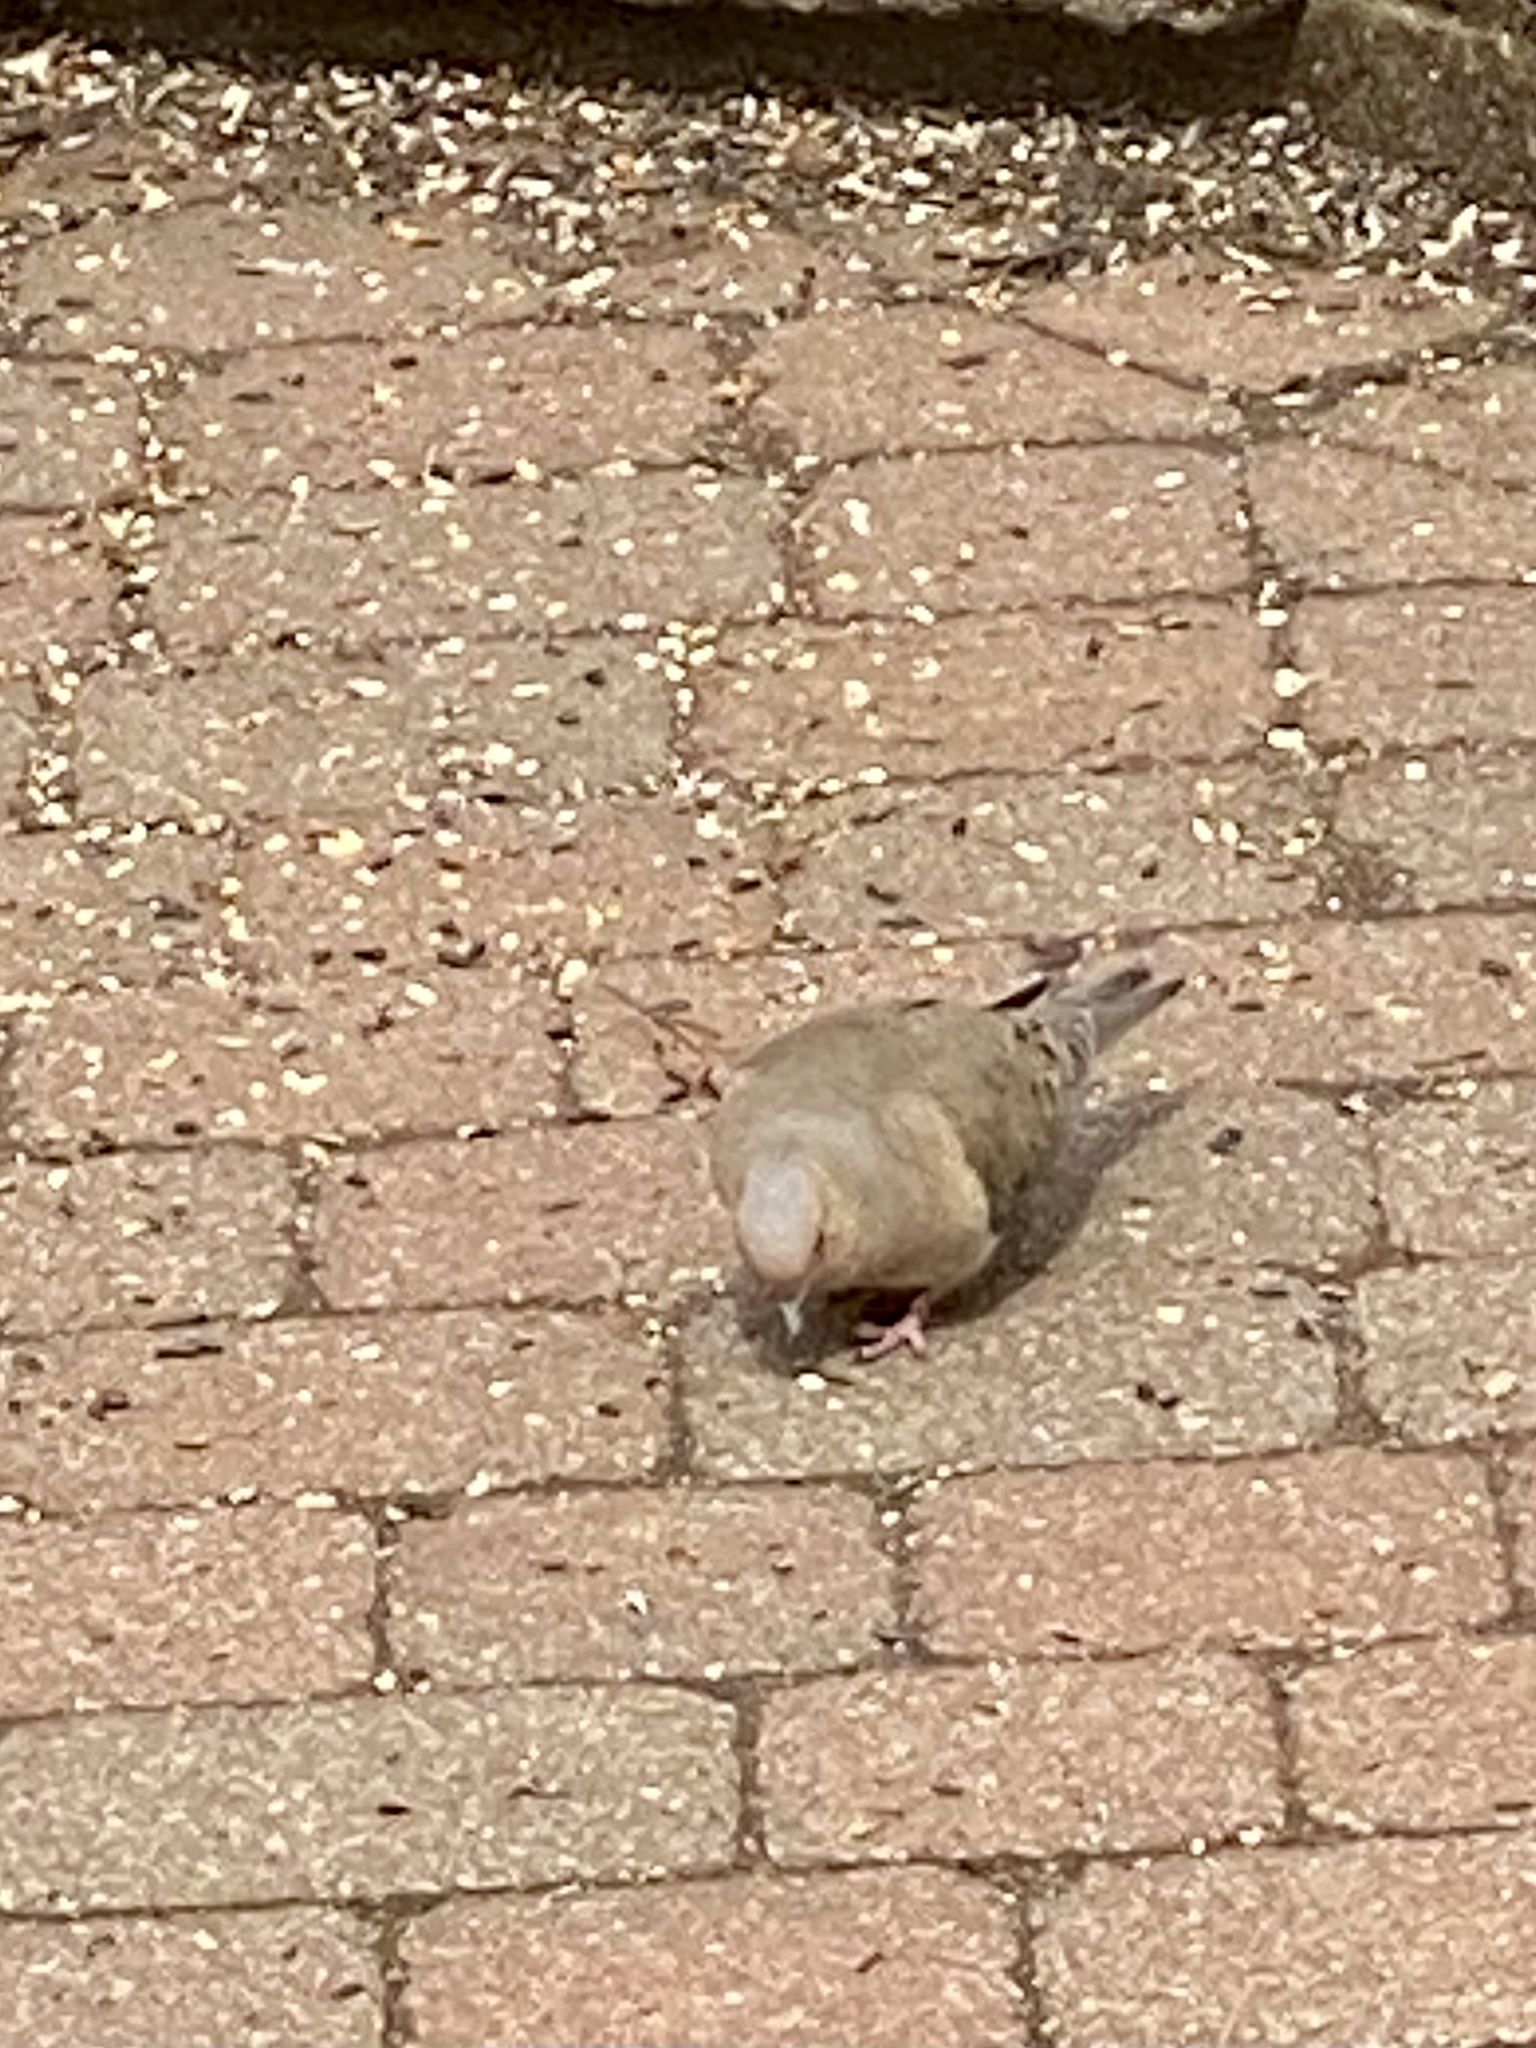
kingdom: Animalia
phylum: Chordata
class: Aves
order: Columbiformes
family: Columbidae
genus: Zenaida
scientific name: Zenaida macroura
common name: Mourning dove
